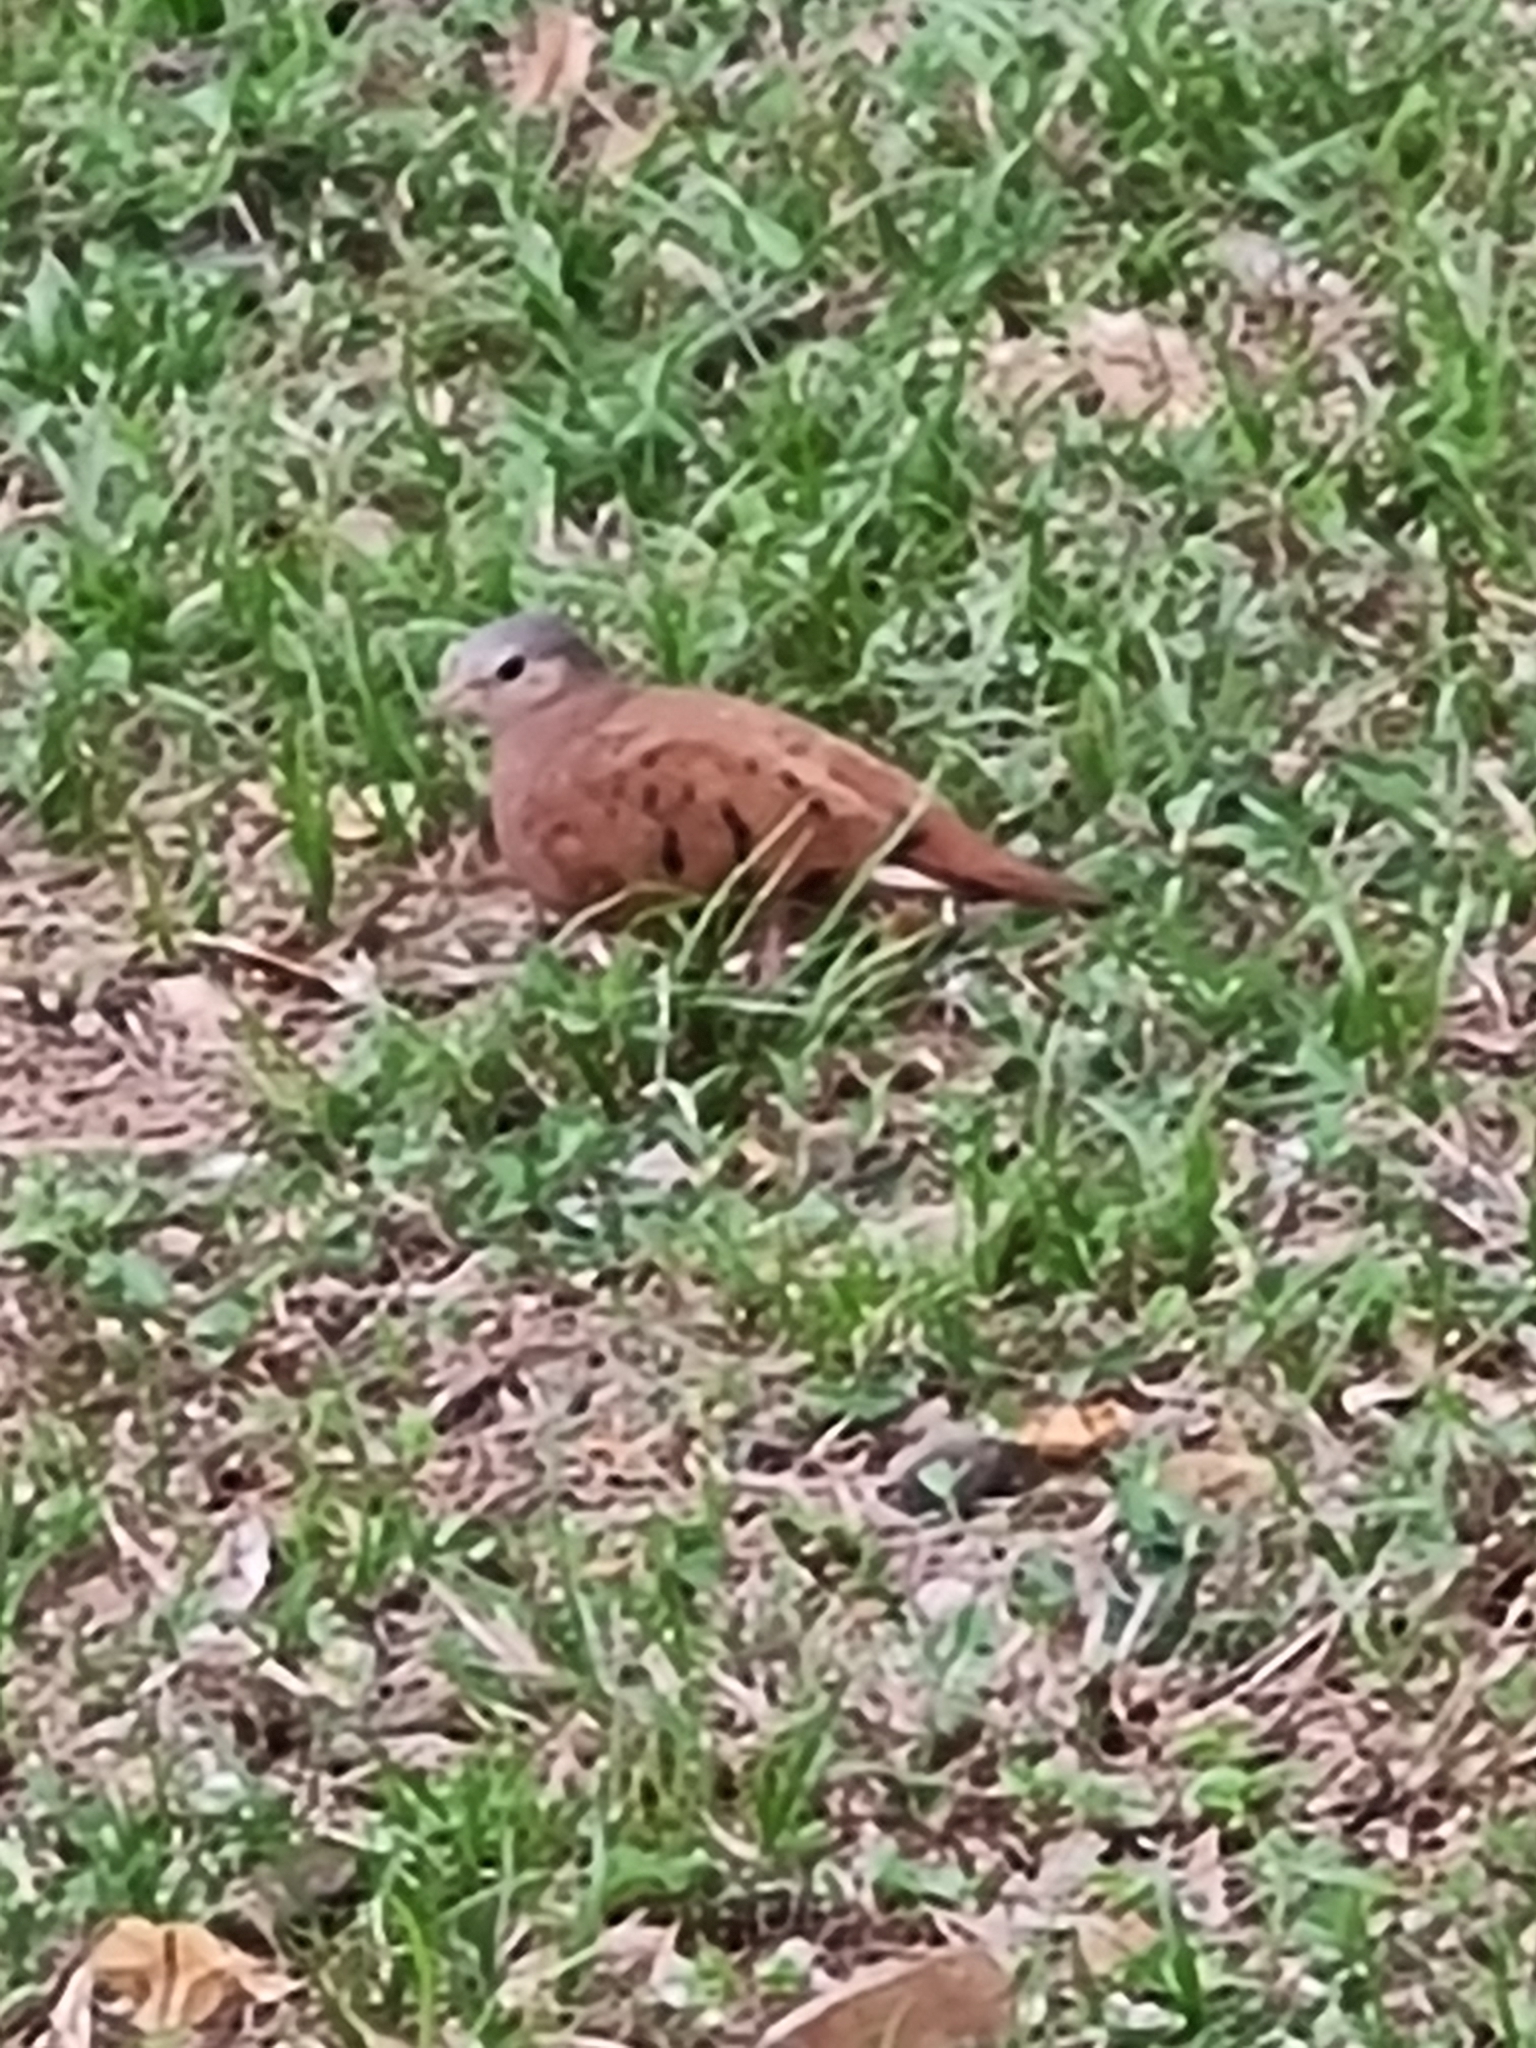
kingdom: Animalia
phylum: Chordata
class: Aves
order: Columbiformes
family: Columbidae
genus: Columbina
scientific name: Columbina talpacoti
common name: Ruddy ground dove
